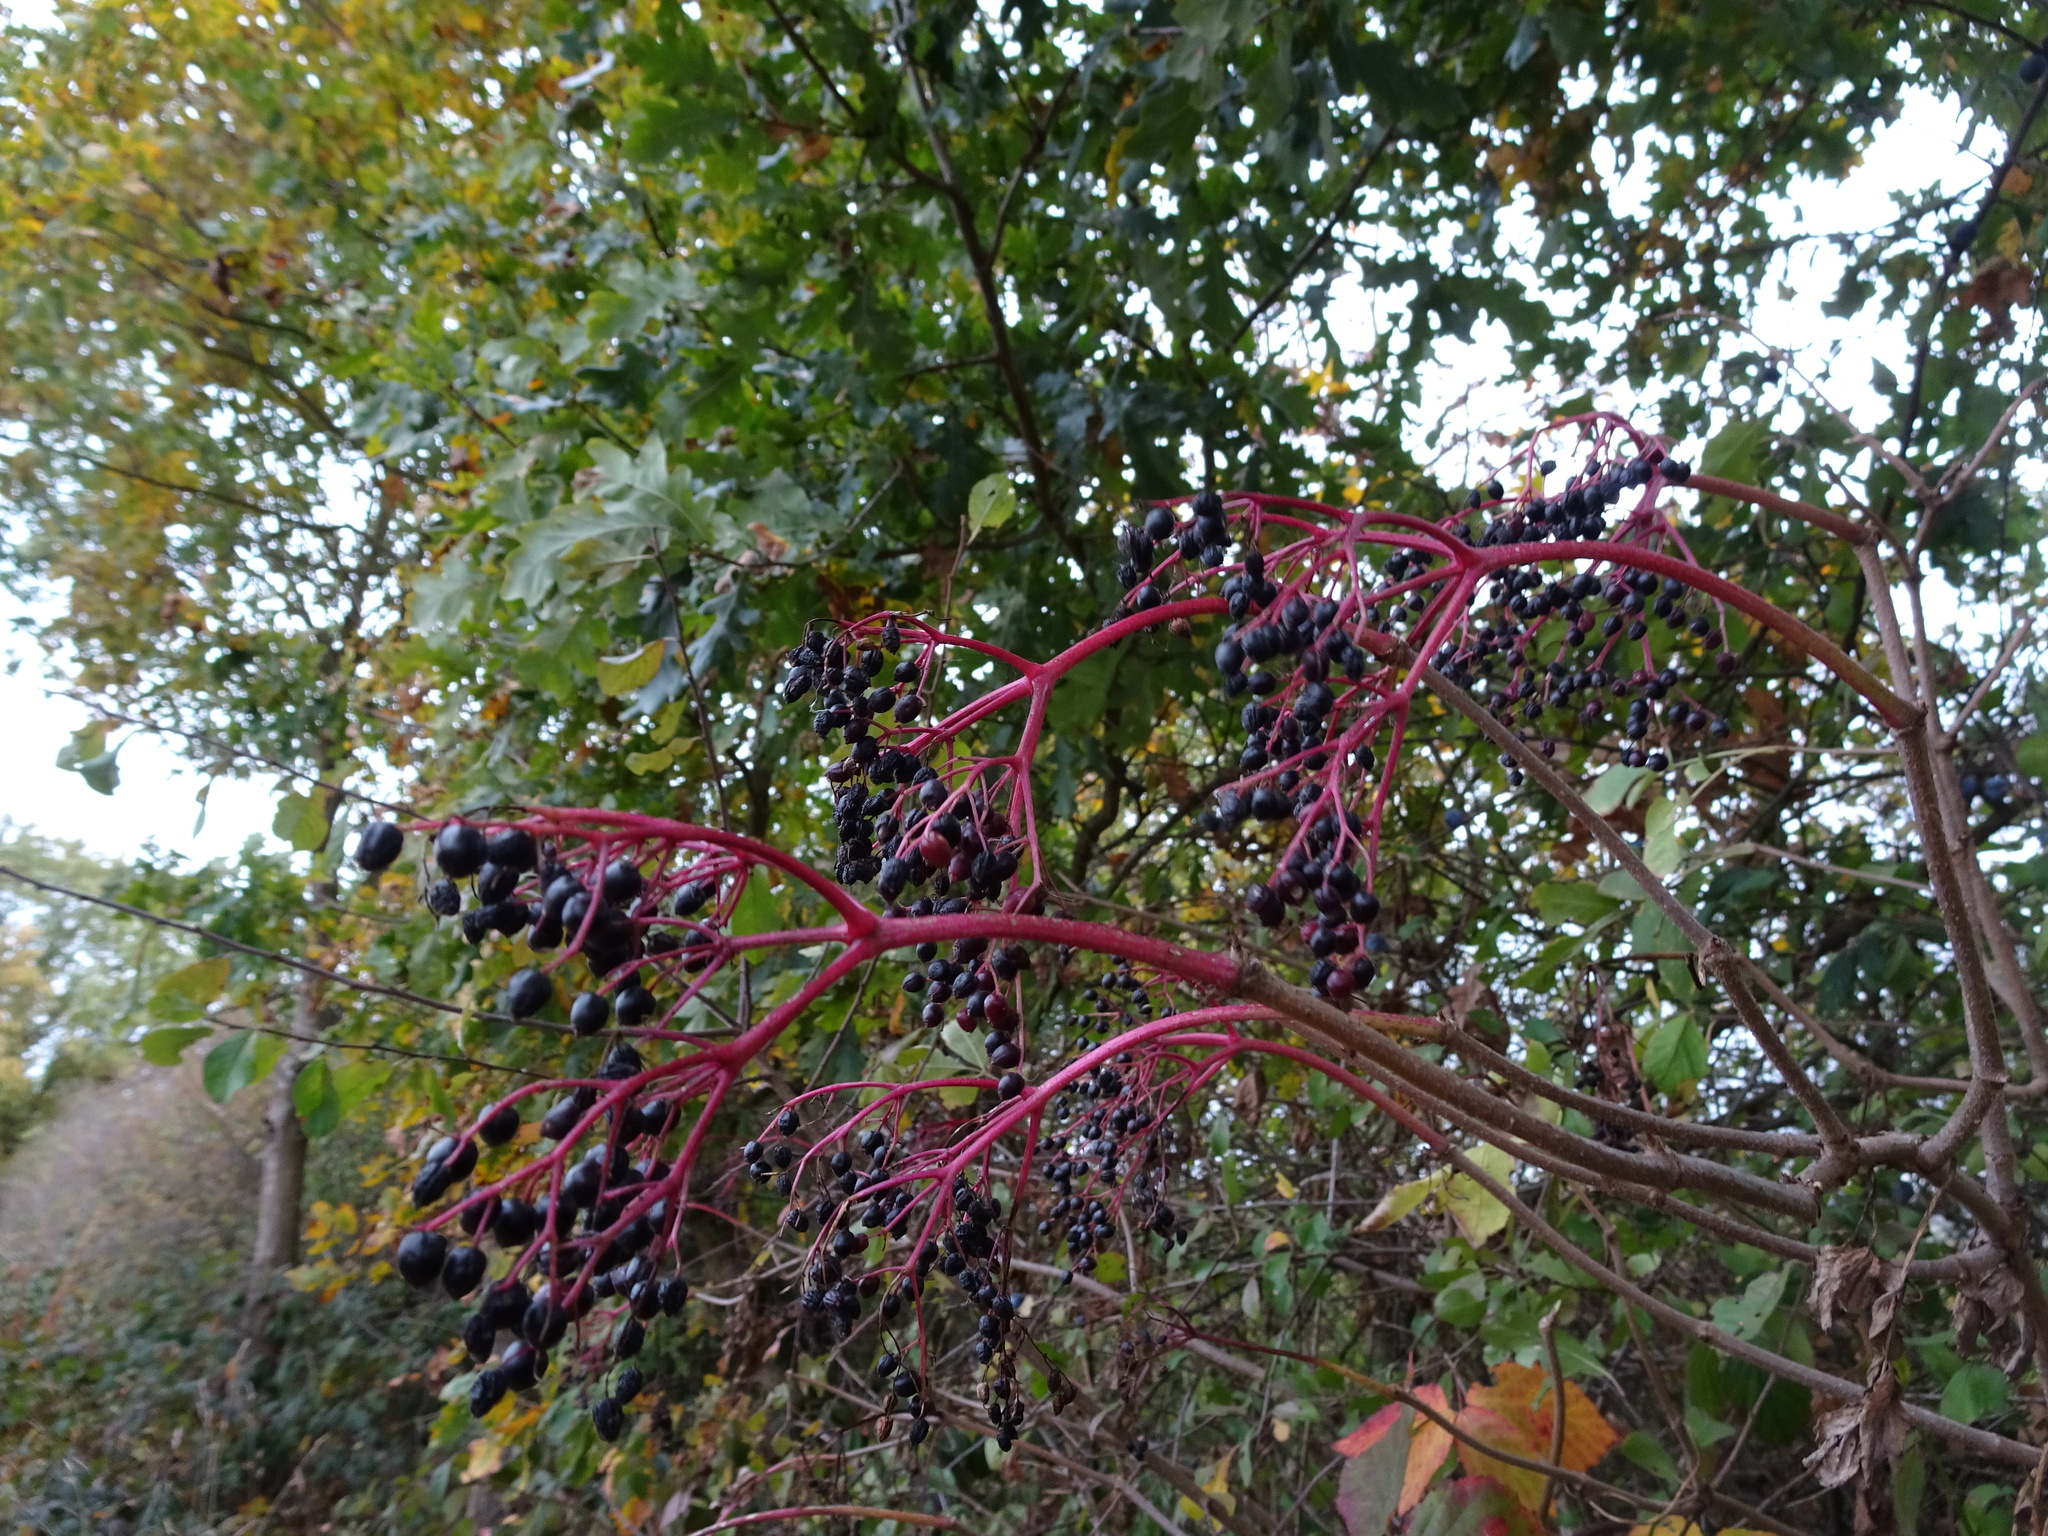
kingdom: Plantae
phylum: Tracheophyta
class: Magnoliopsida
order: Dipsacales
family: Viburnaceae
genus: Sambucus
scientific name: Sambucus nigra
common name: Elder
